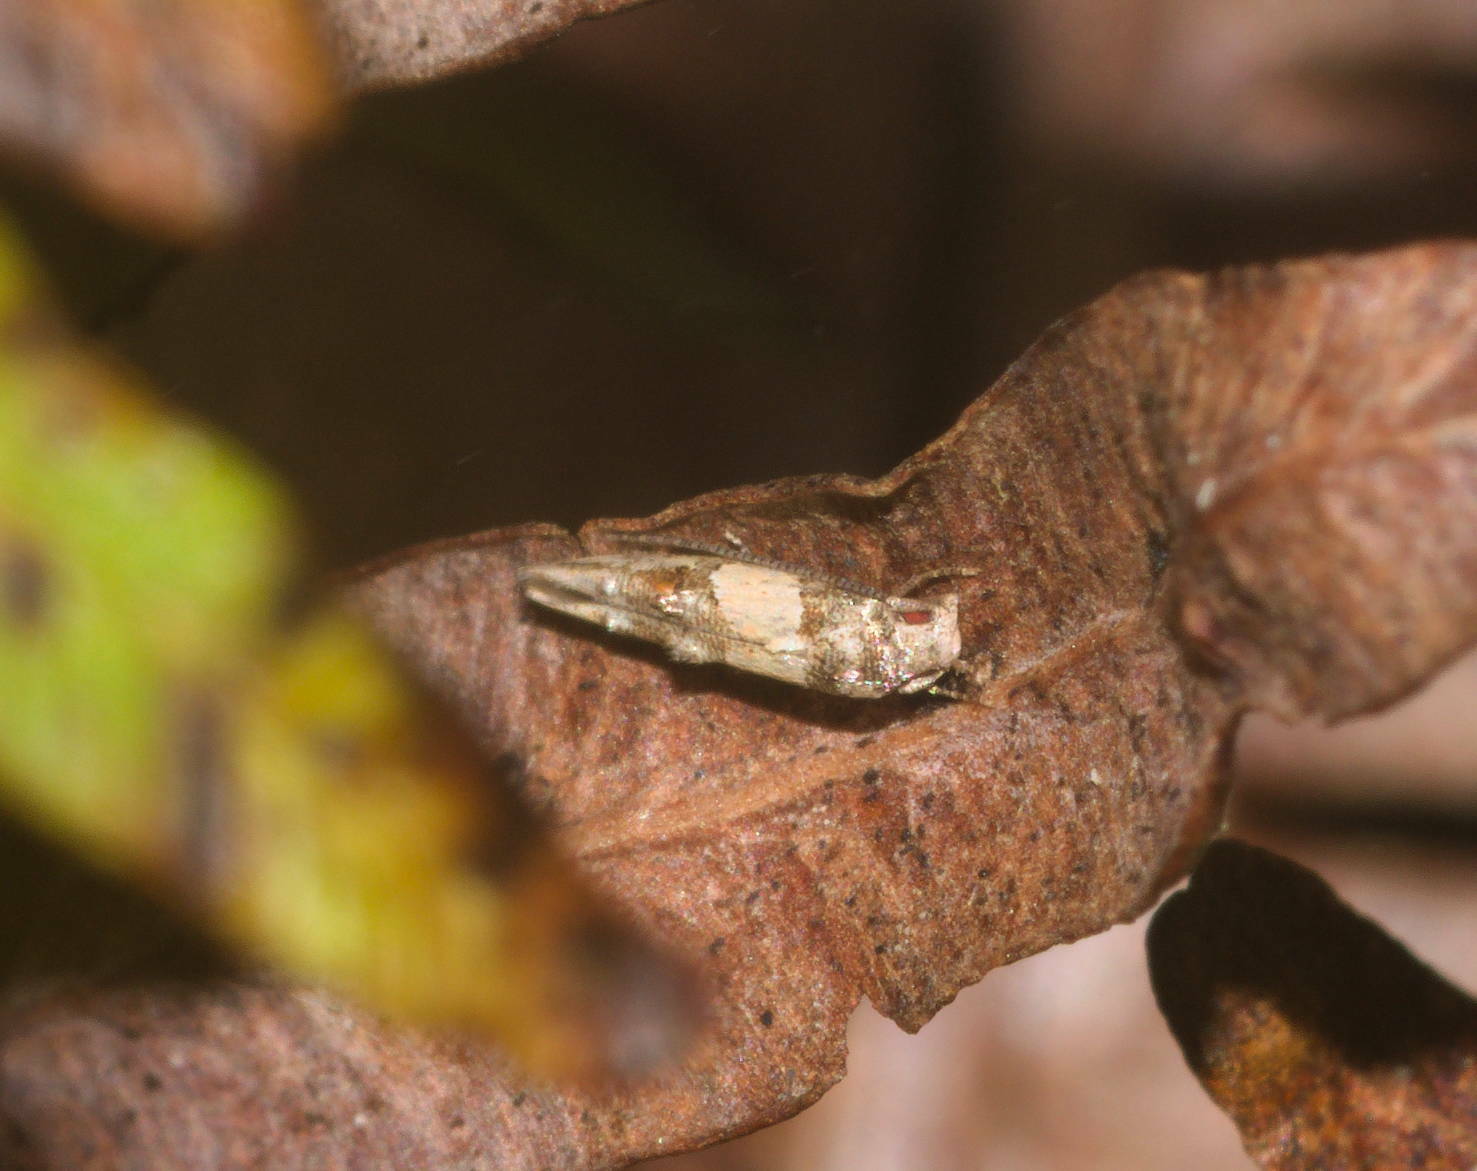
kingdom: Animalia
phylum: Arthropoda
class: Insecta
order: Lepidoptera
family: Momphidae
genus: Mompha
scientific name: Mompha trithalama
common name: Moth
